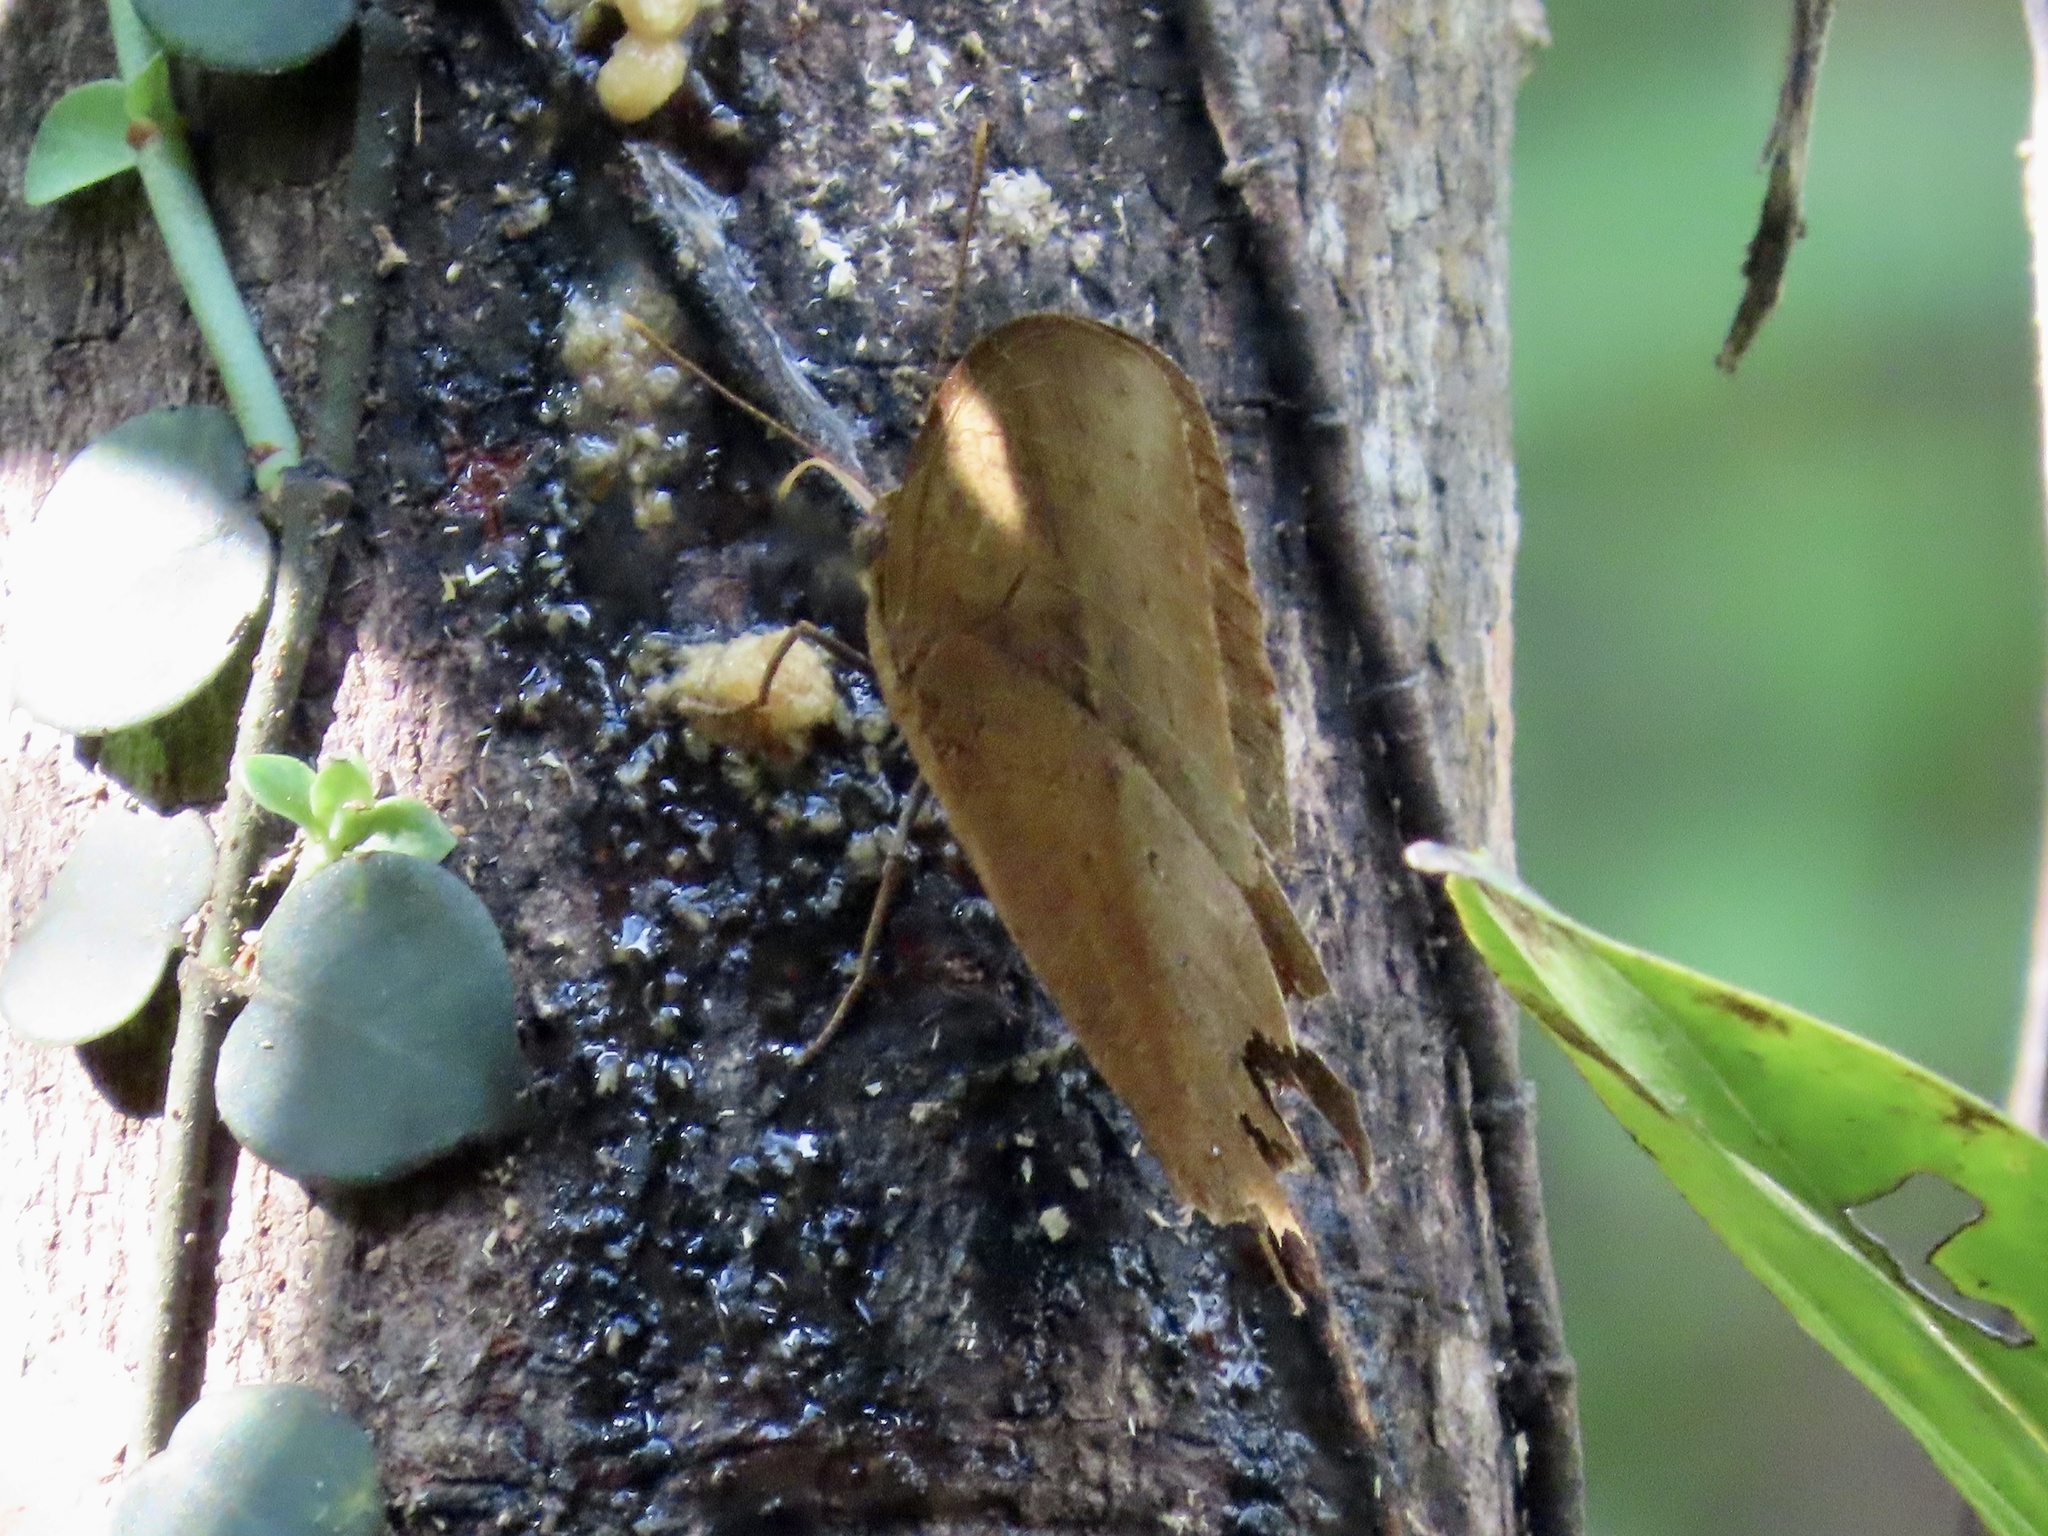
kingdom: Animalia
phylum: Arthropoda
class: Insecta
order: Lepidoptera
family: Nymphalidae
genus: Discophora
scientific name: Discophora sondaica
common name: Common duffer
